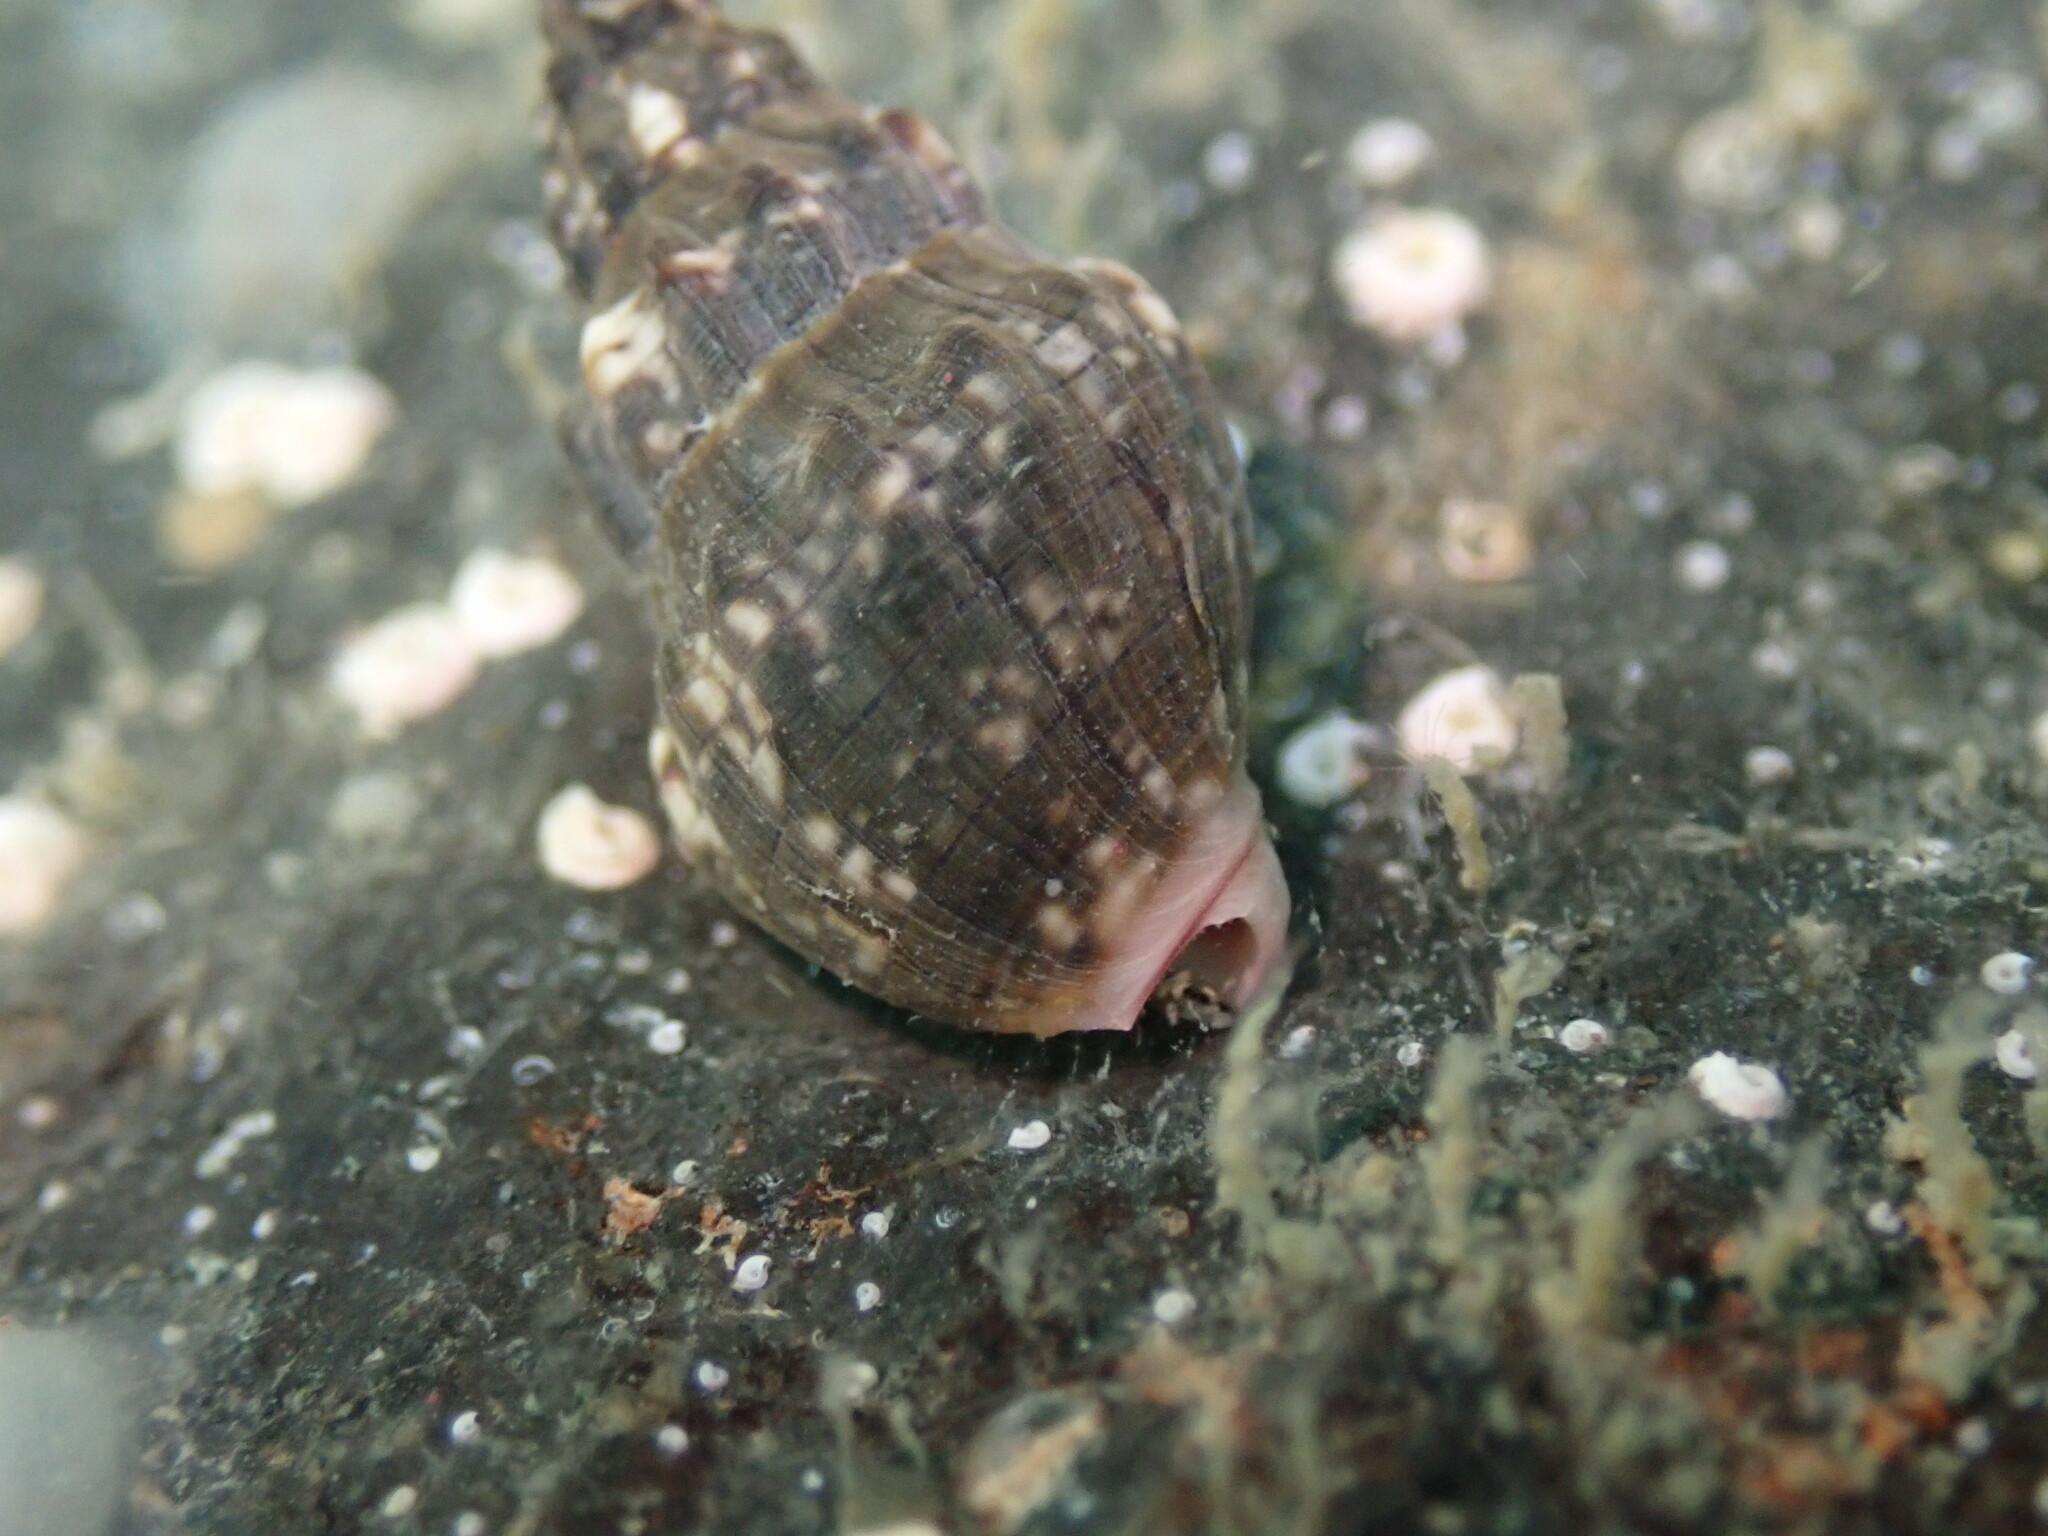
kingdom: Animalia
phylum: Mollusca
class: Gastropoda
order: Neogastropoda
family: Cominellidae
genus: Cominella
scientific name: Cominella quoyana
